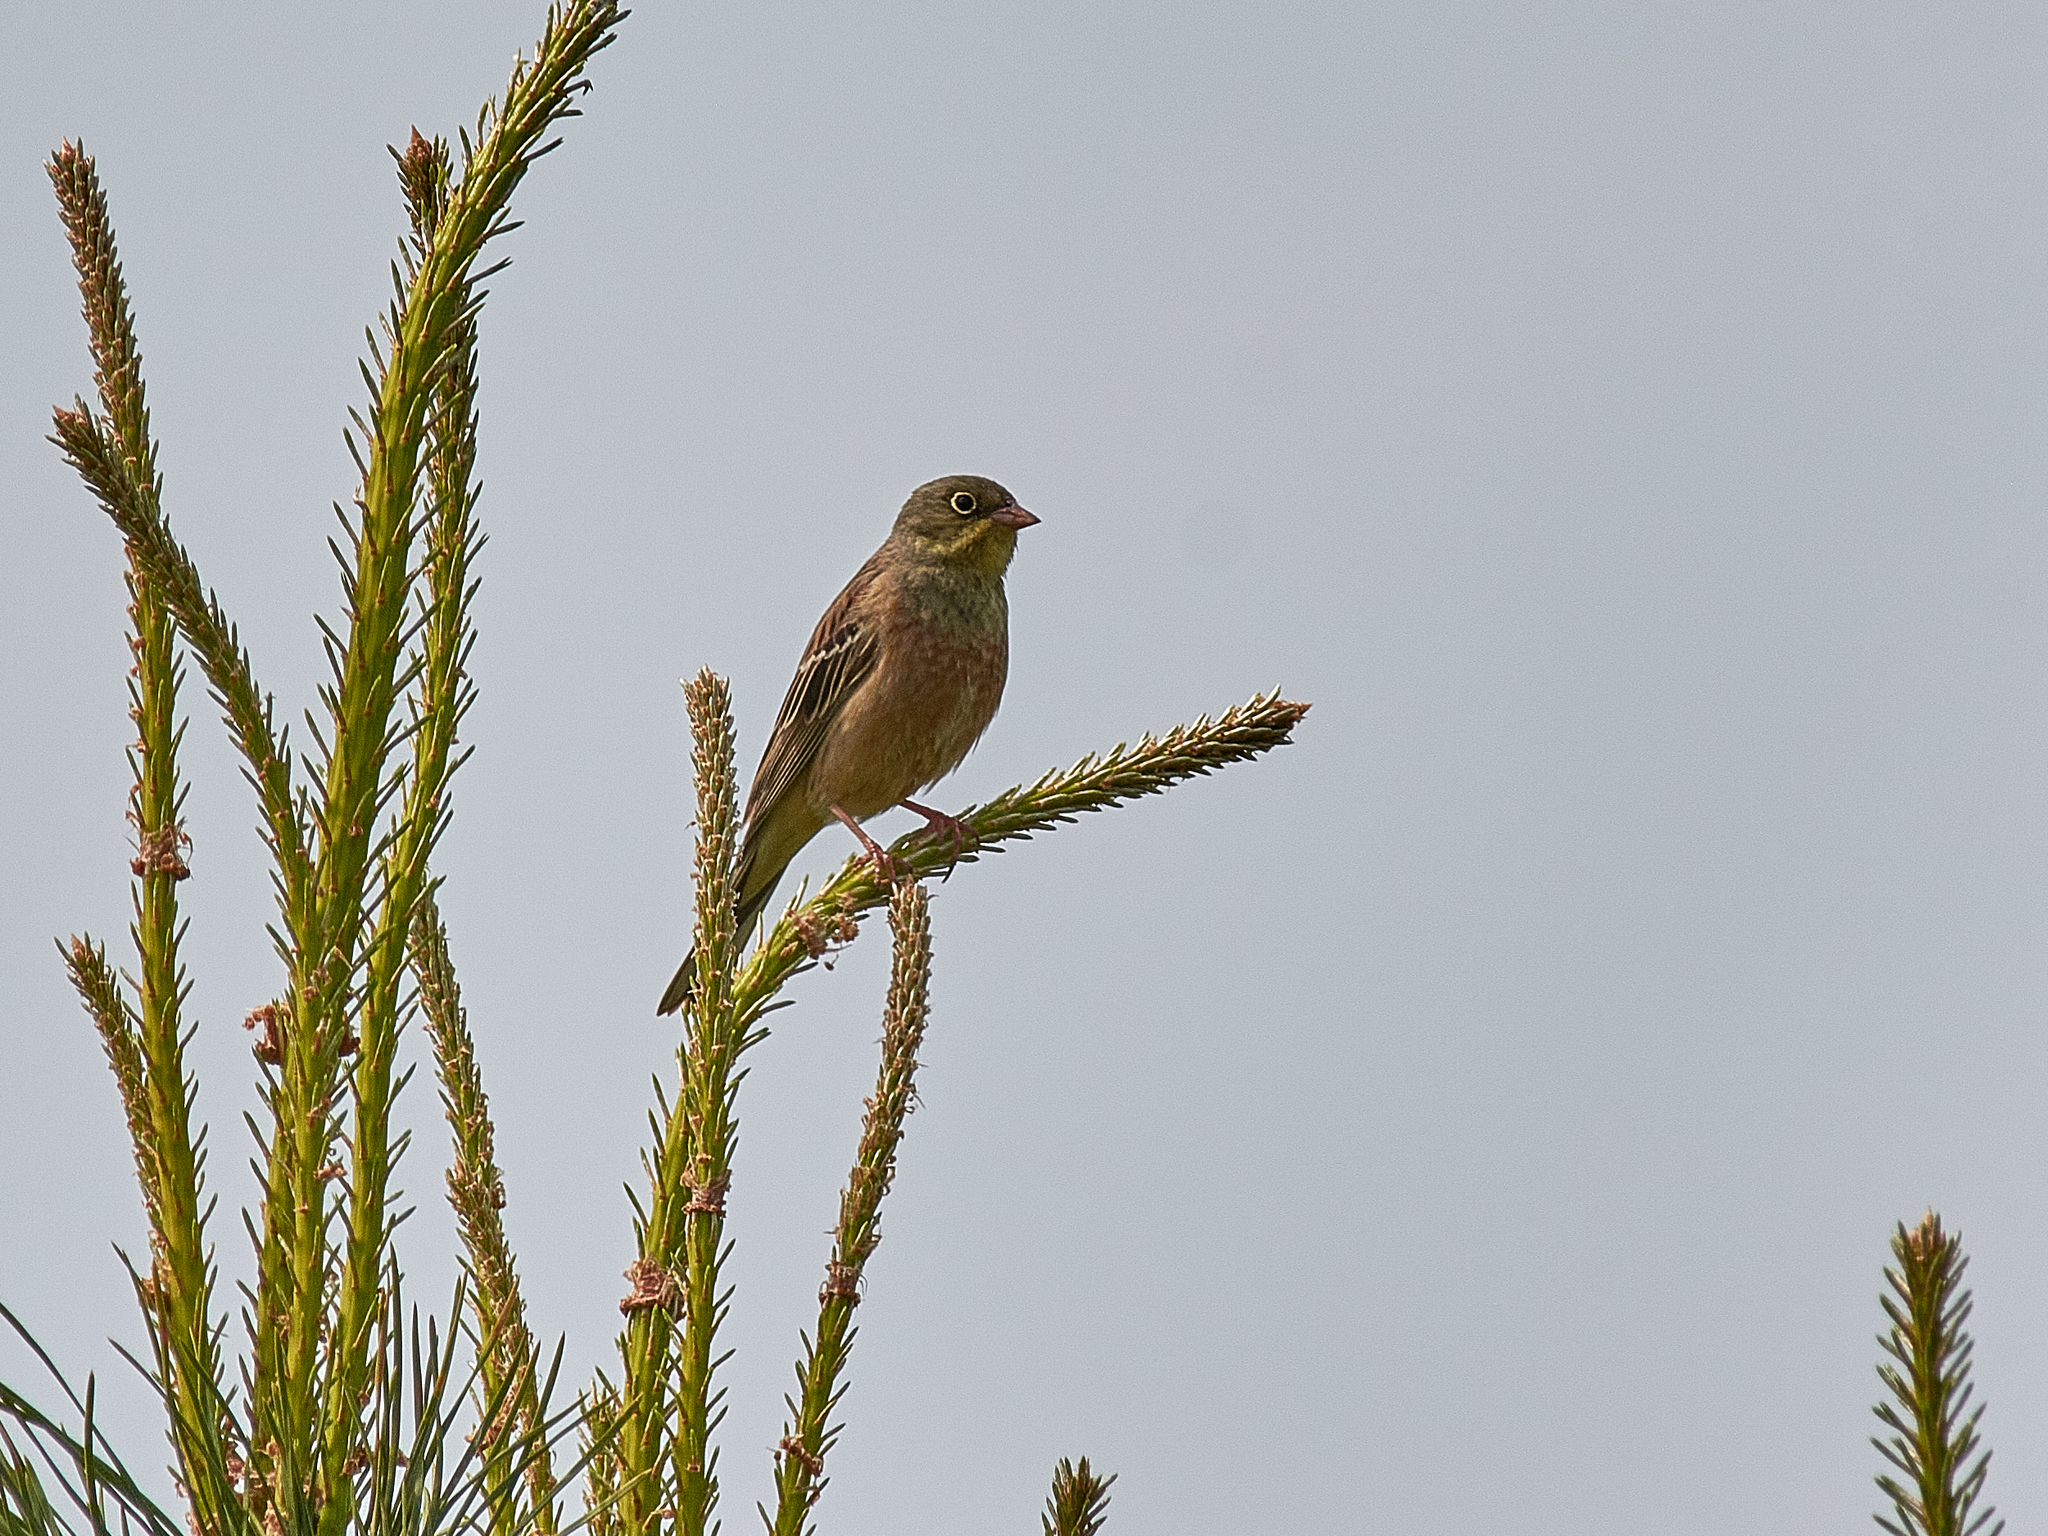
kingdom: Animalia
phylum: Chordata
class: Aves
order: Passeriformes
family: Emberizidae
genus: Emberiza
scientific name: Emberiza hortulana
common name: Ortolan bunting
